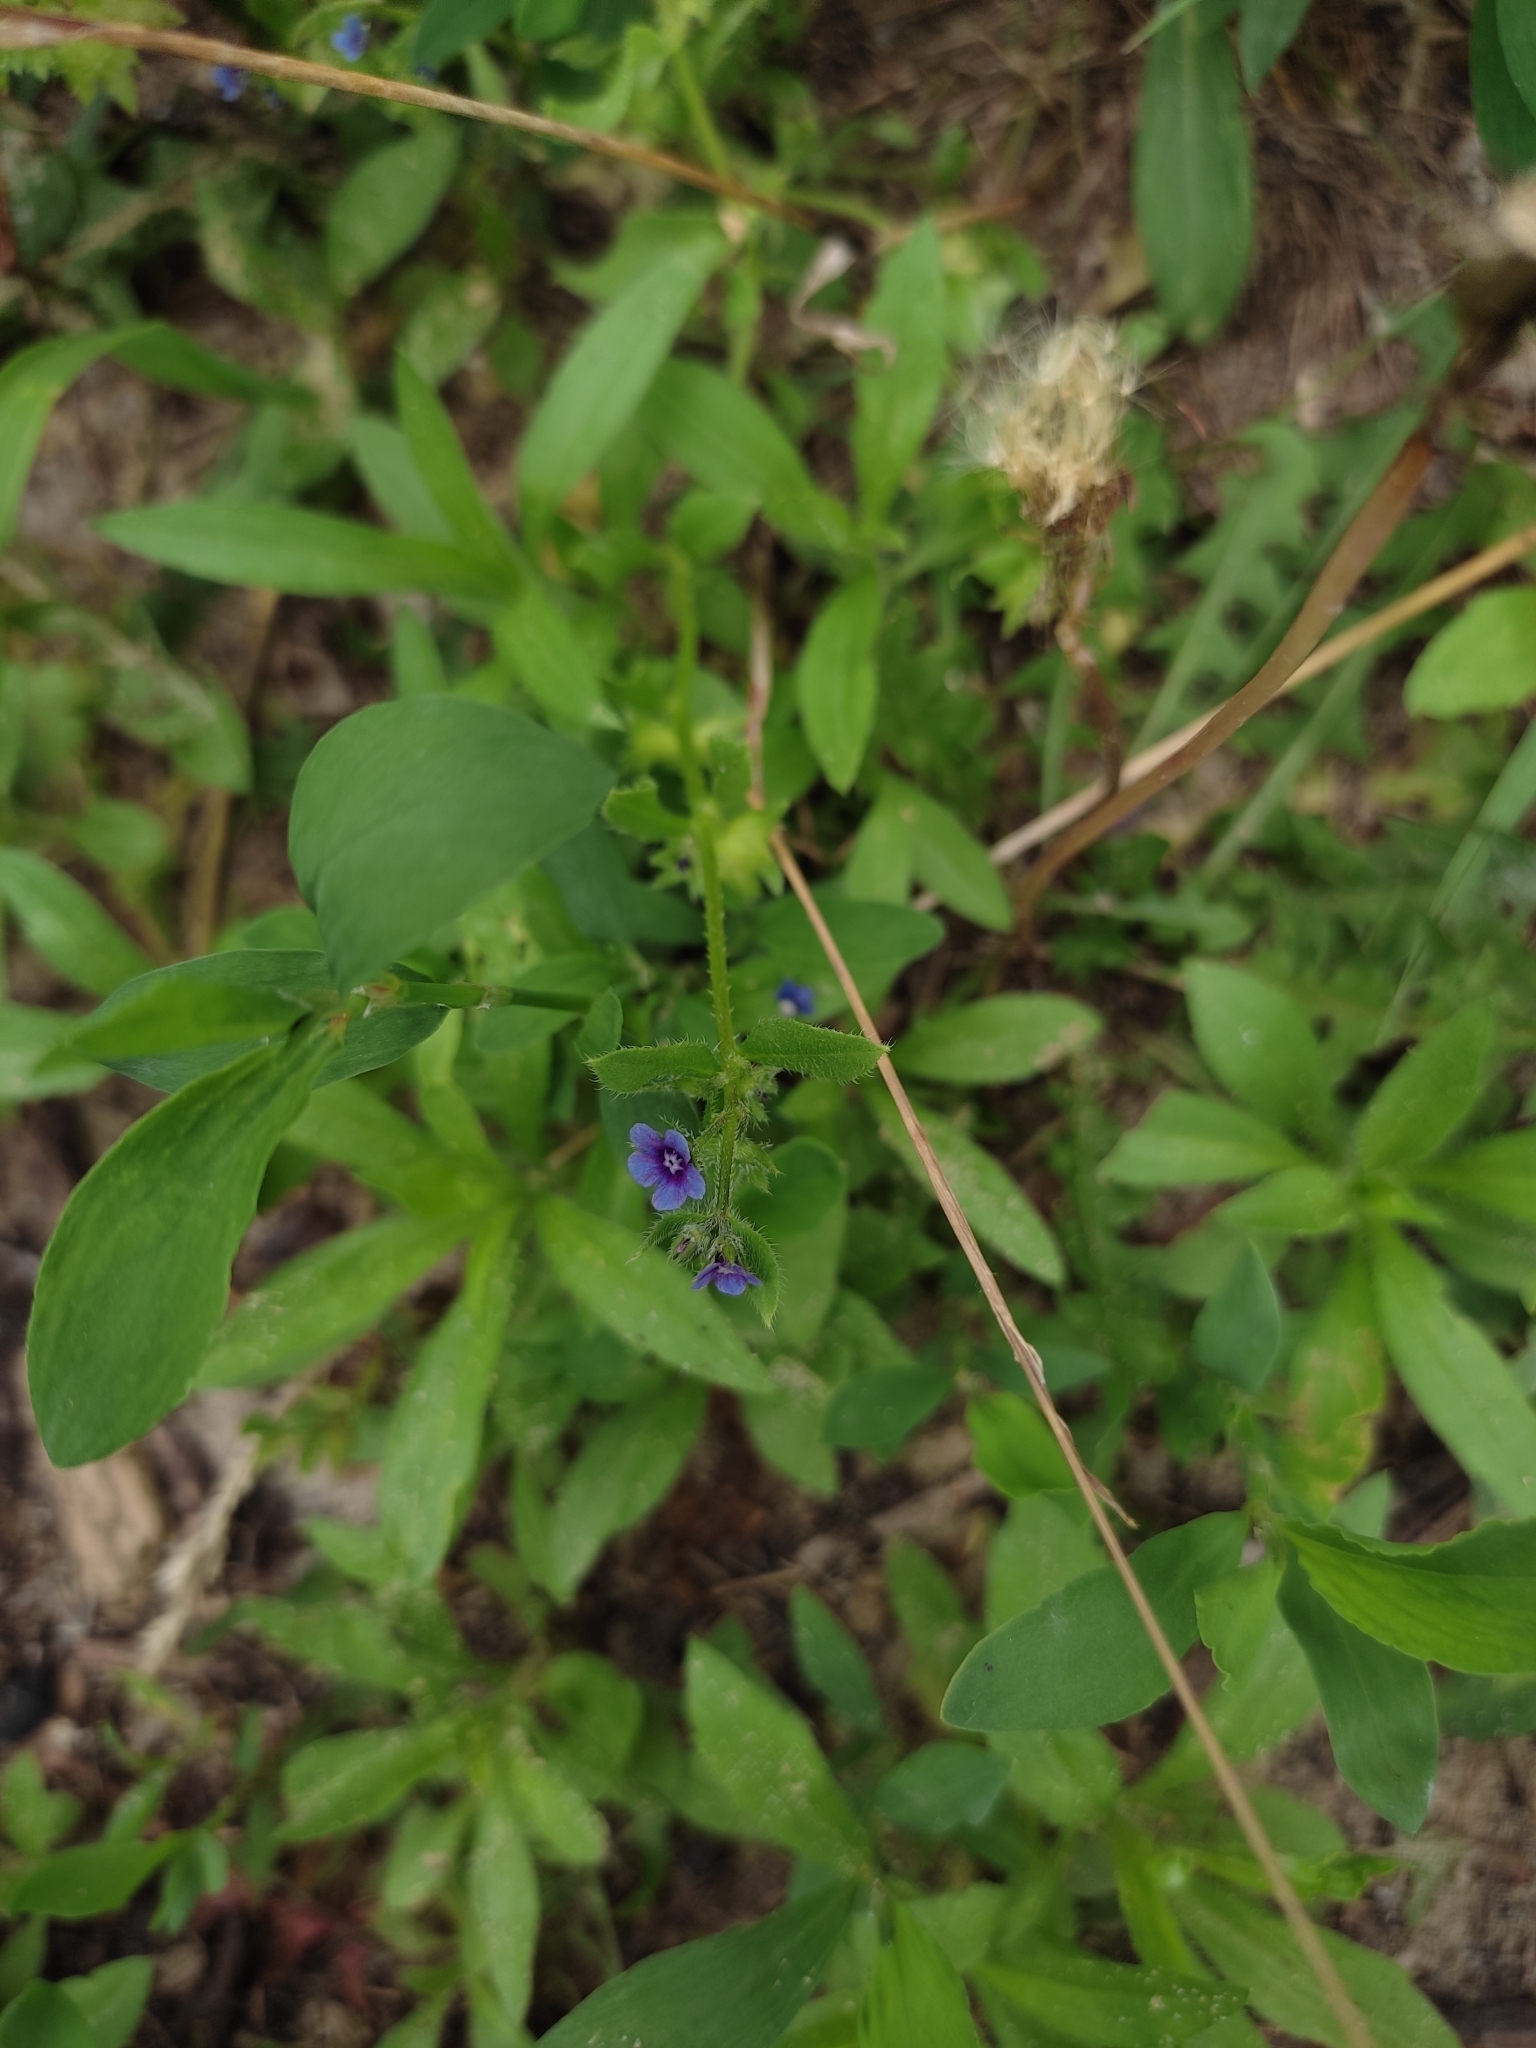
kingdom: Plantae
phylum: Tracheophyta
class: Magnoliopsida
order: Boraginales
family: Boraginaceae
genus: Asperugo
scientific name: Asperugo procumbens
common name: Madwort
